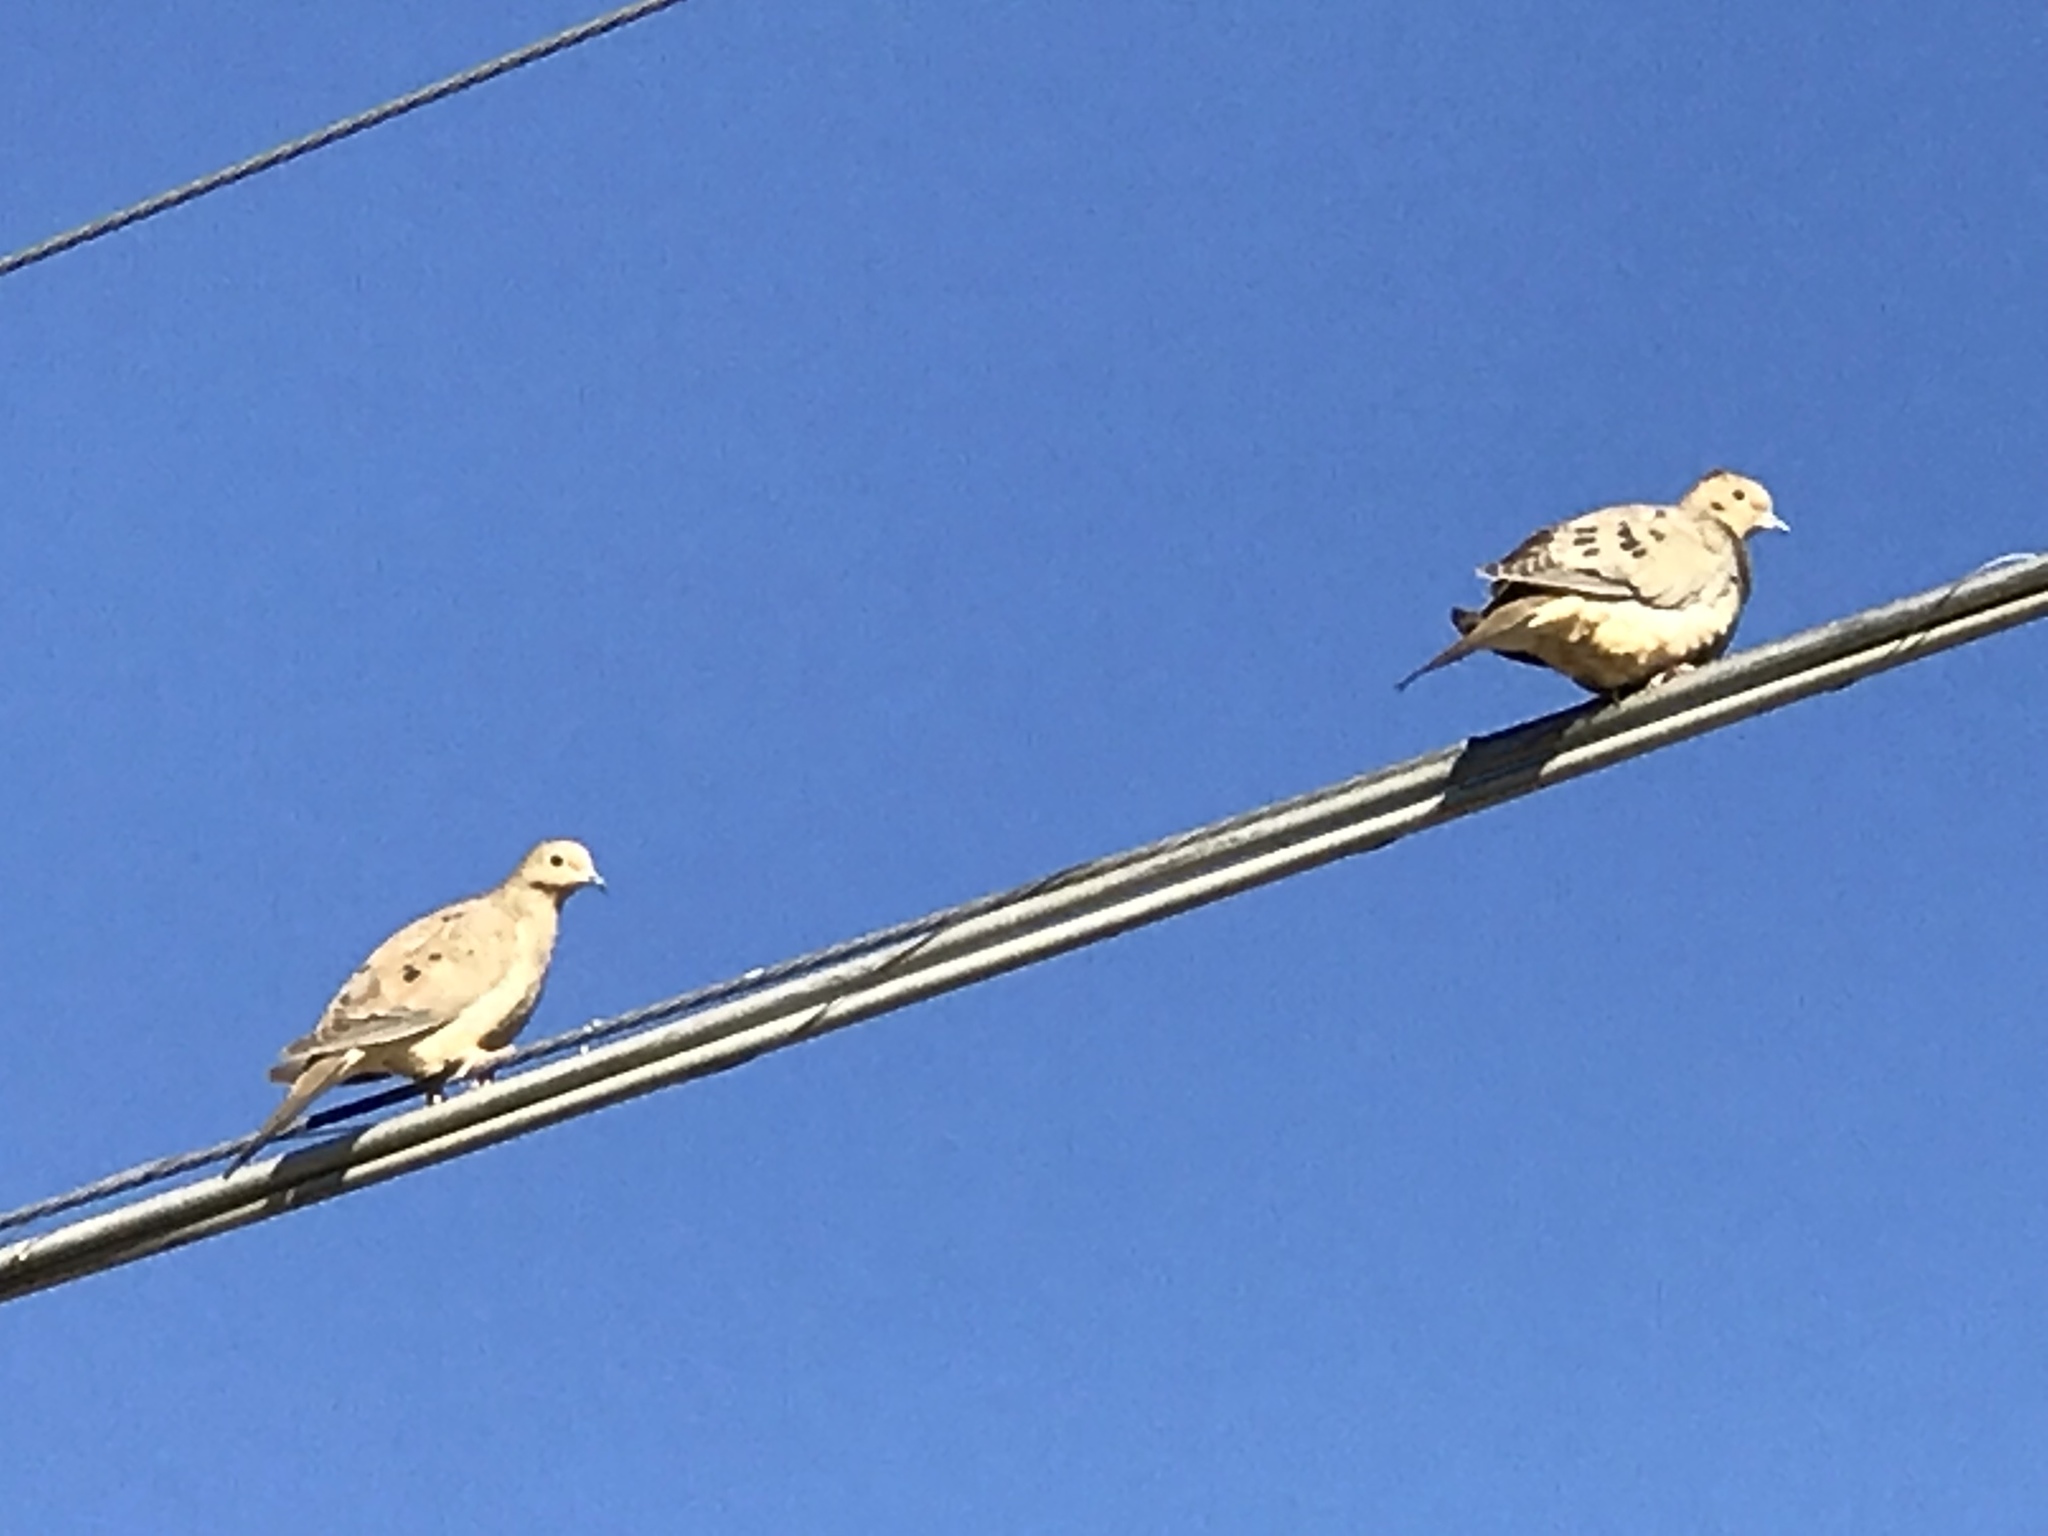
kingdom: Animalia
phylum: Chordata
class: Aves
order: Columbiformes
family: Columbidae
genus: Zenaida
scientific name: Zenaida macroura
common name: Mourning dove
